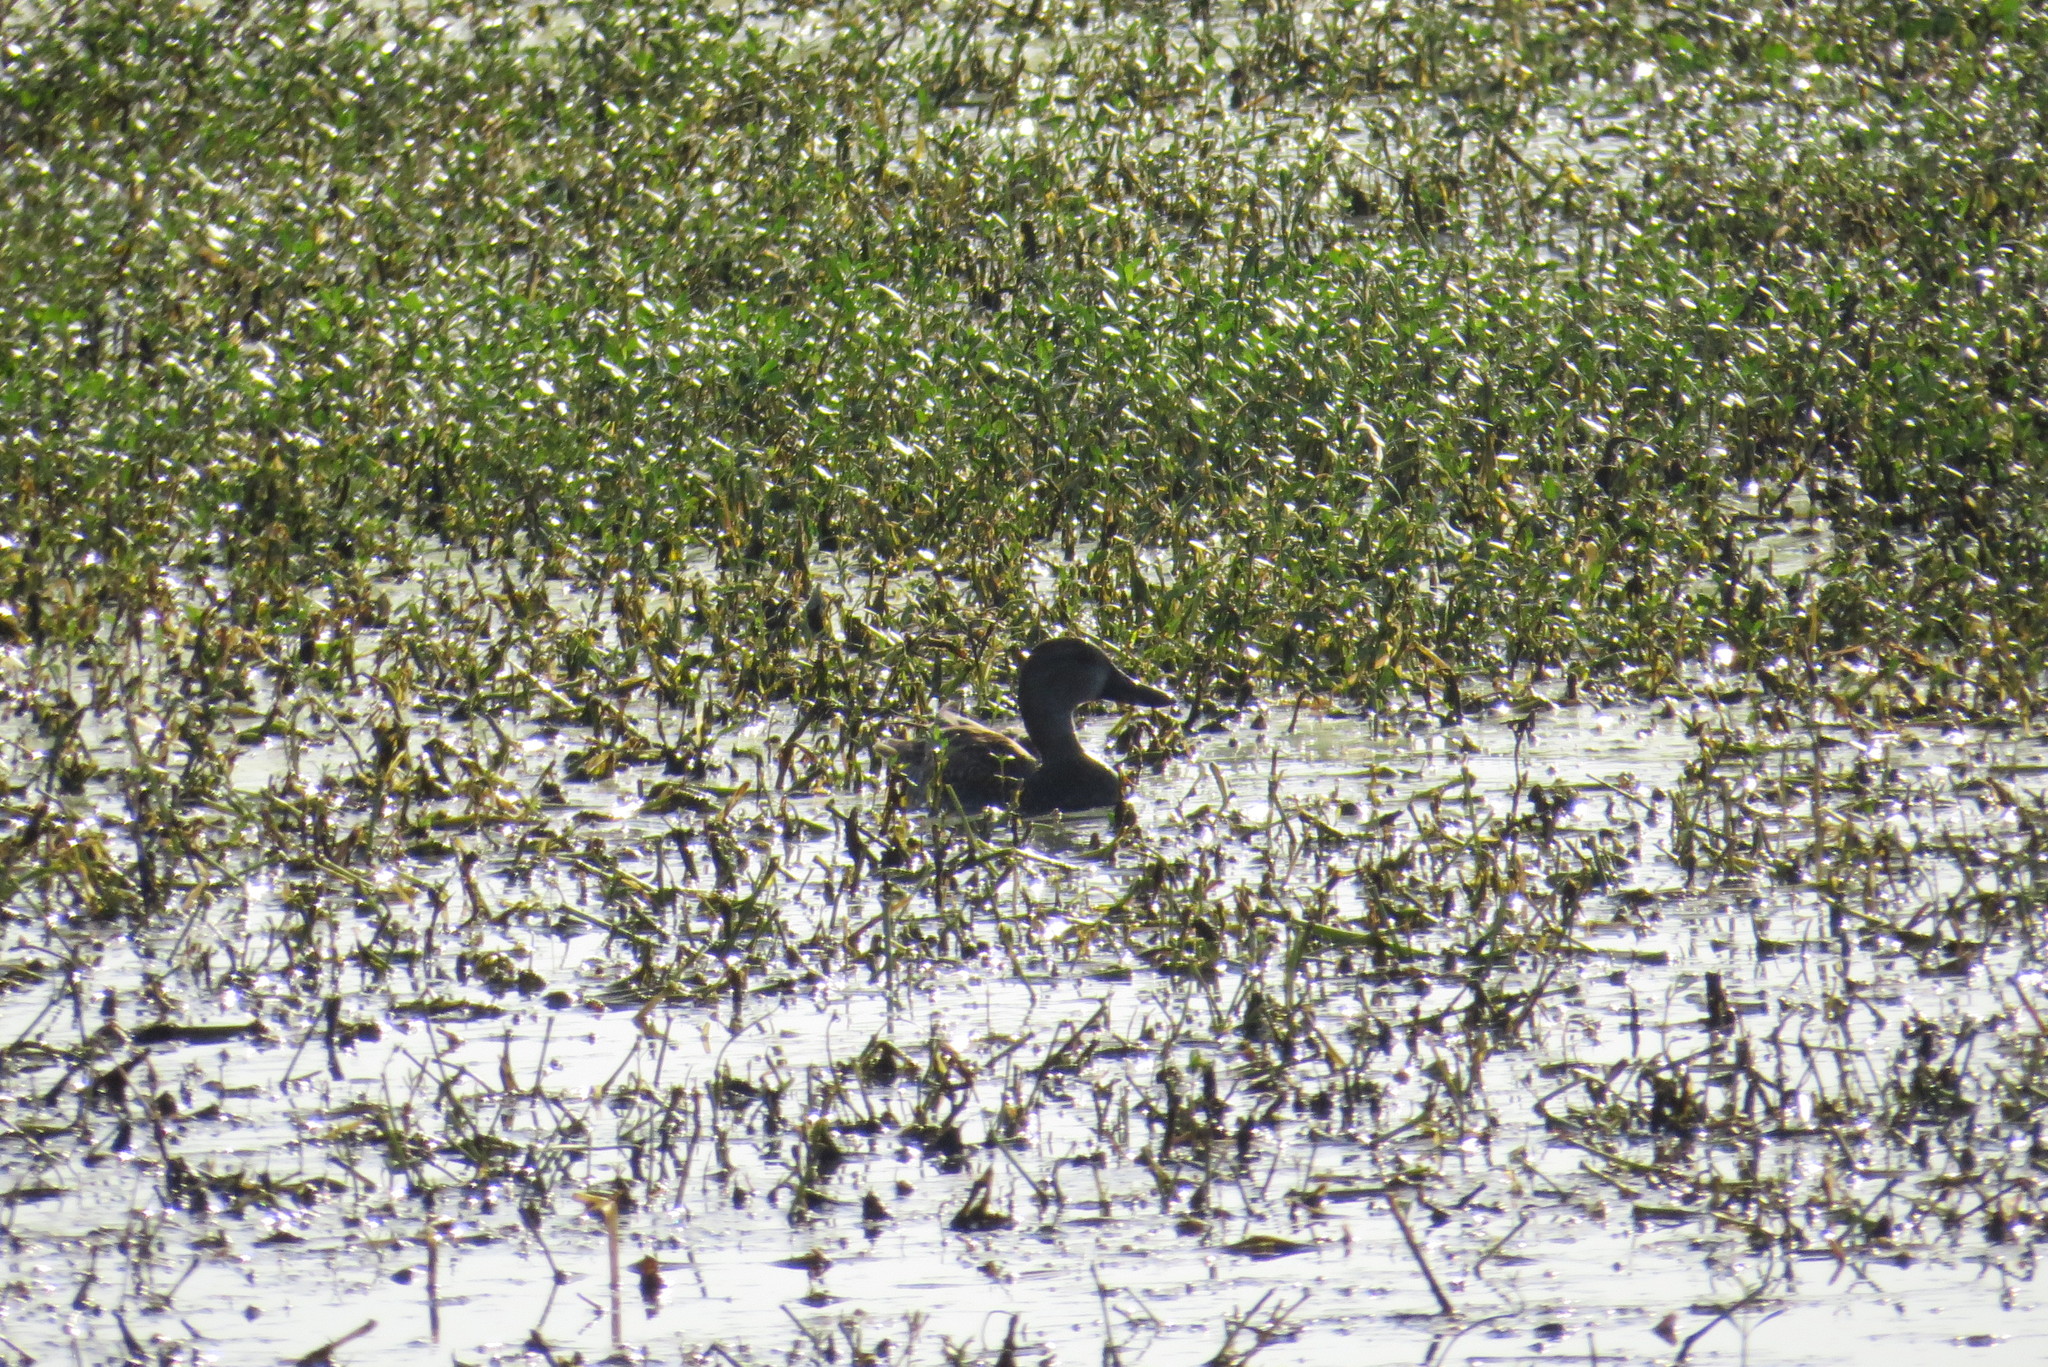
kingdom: Animalia
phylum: Chordata
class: Aves
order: Anseriformes
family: Anatidae
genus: Spatula
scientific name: Spatula discors
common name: Blue-winged teal
